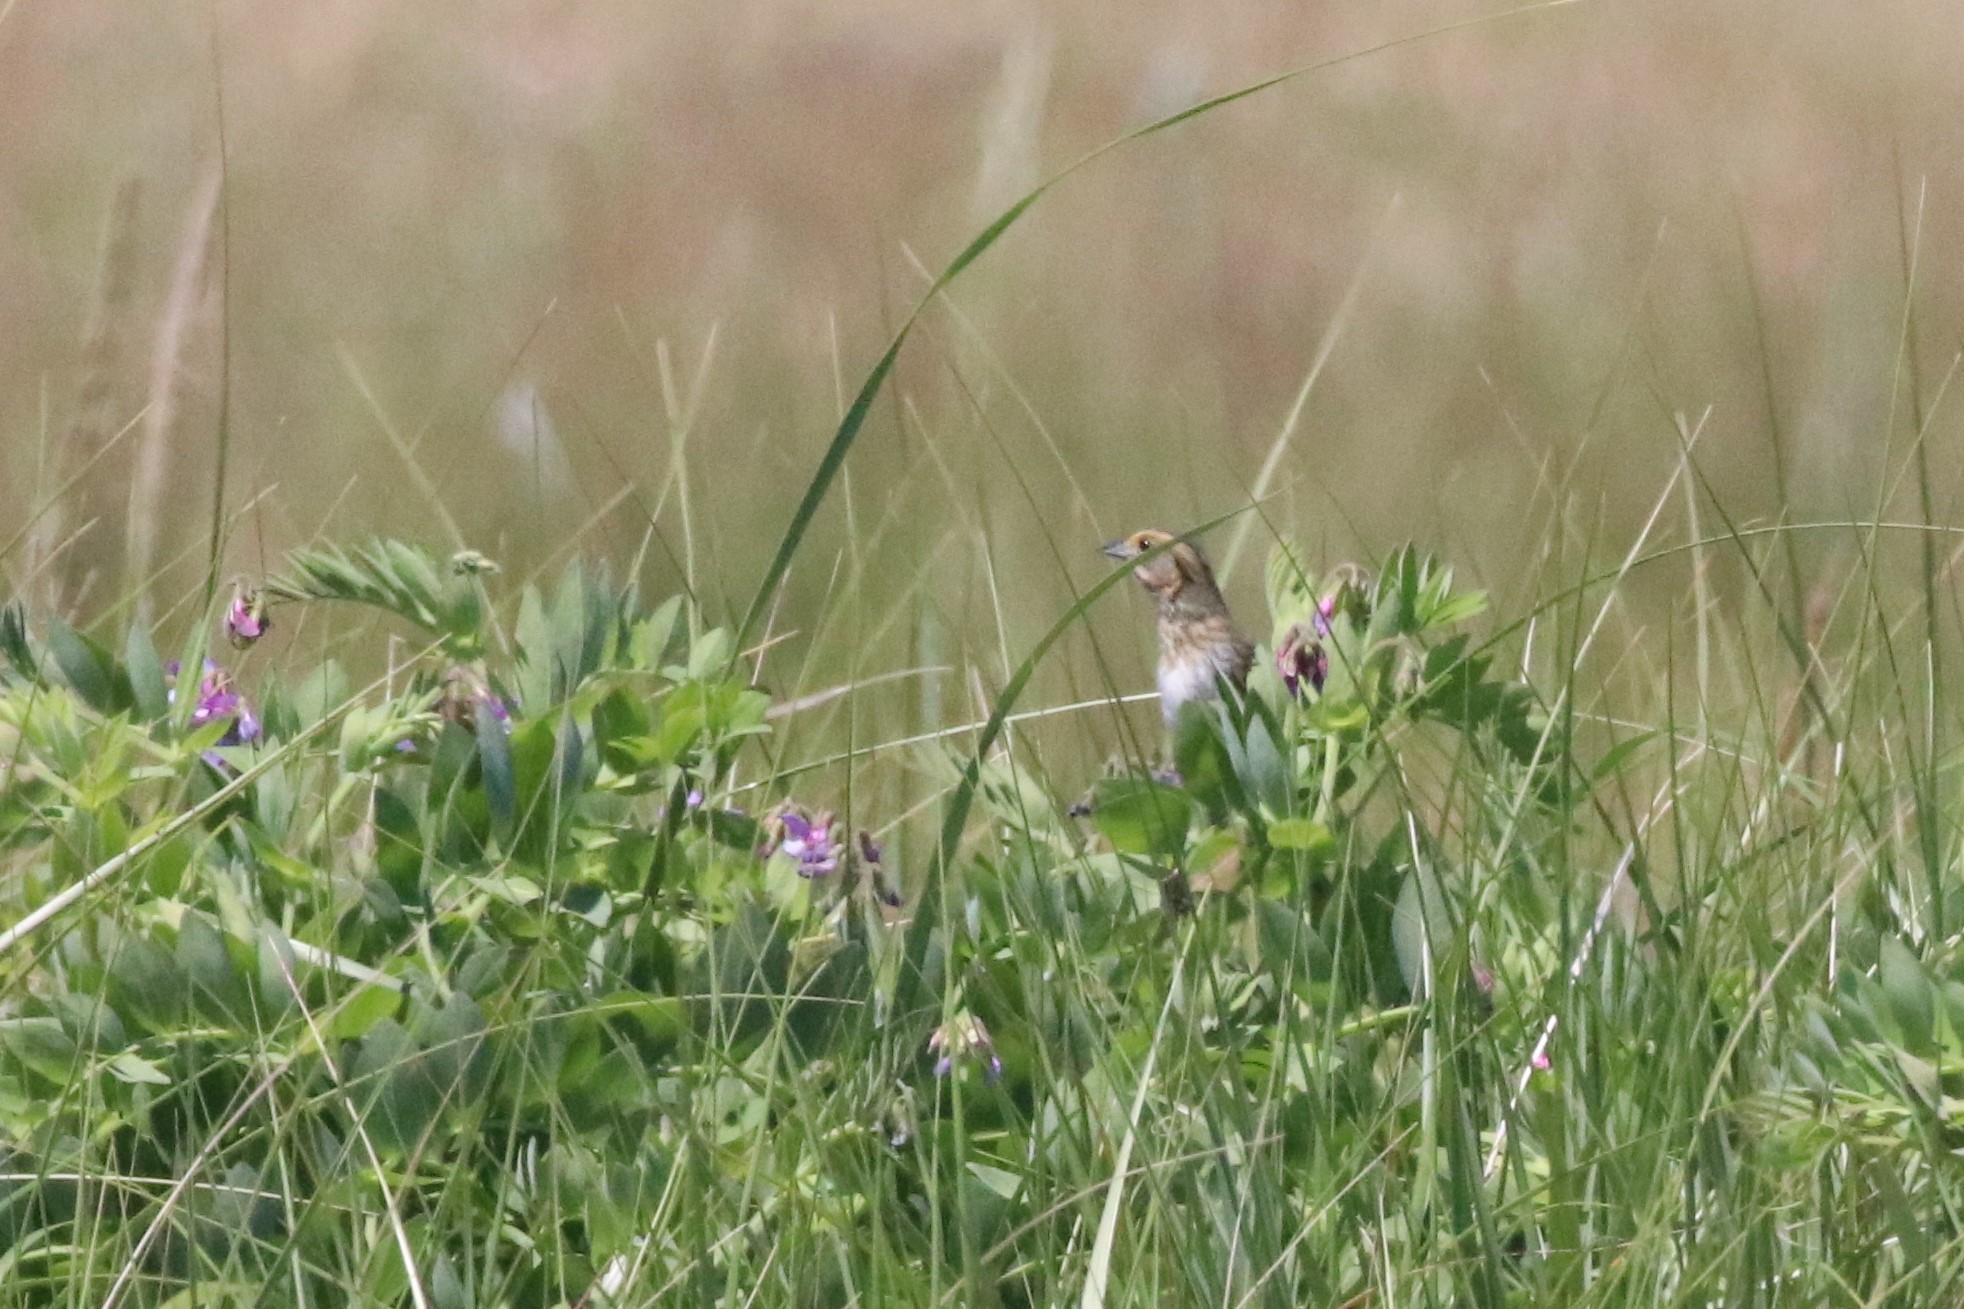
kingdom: Animalia
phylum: Chordata
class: Aves
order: Passeriformes
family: Passerellidae
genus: Ammospiza
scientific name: Ammospiza nelsoni
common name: Nelson's sparrow
